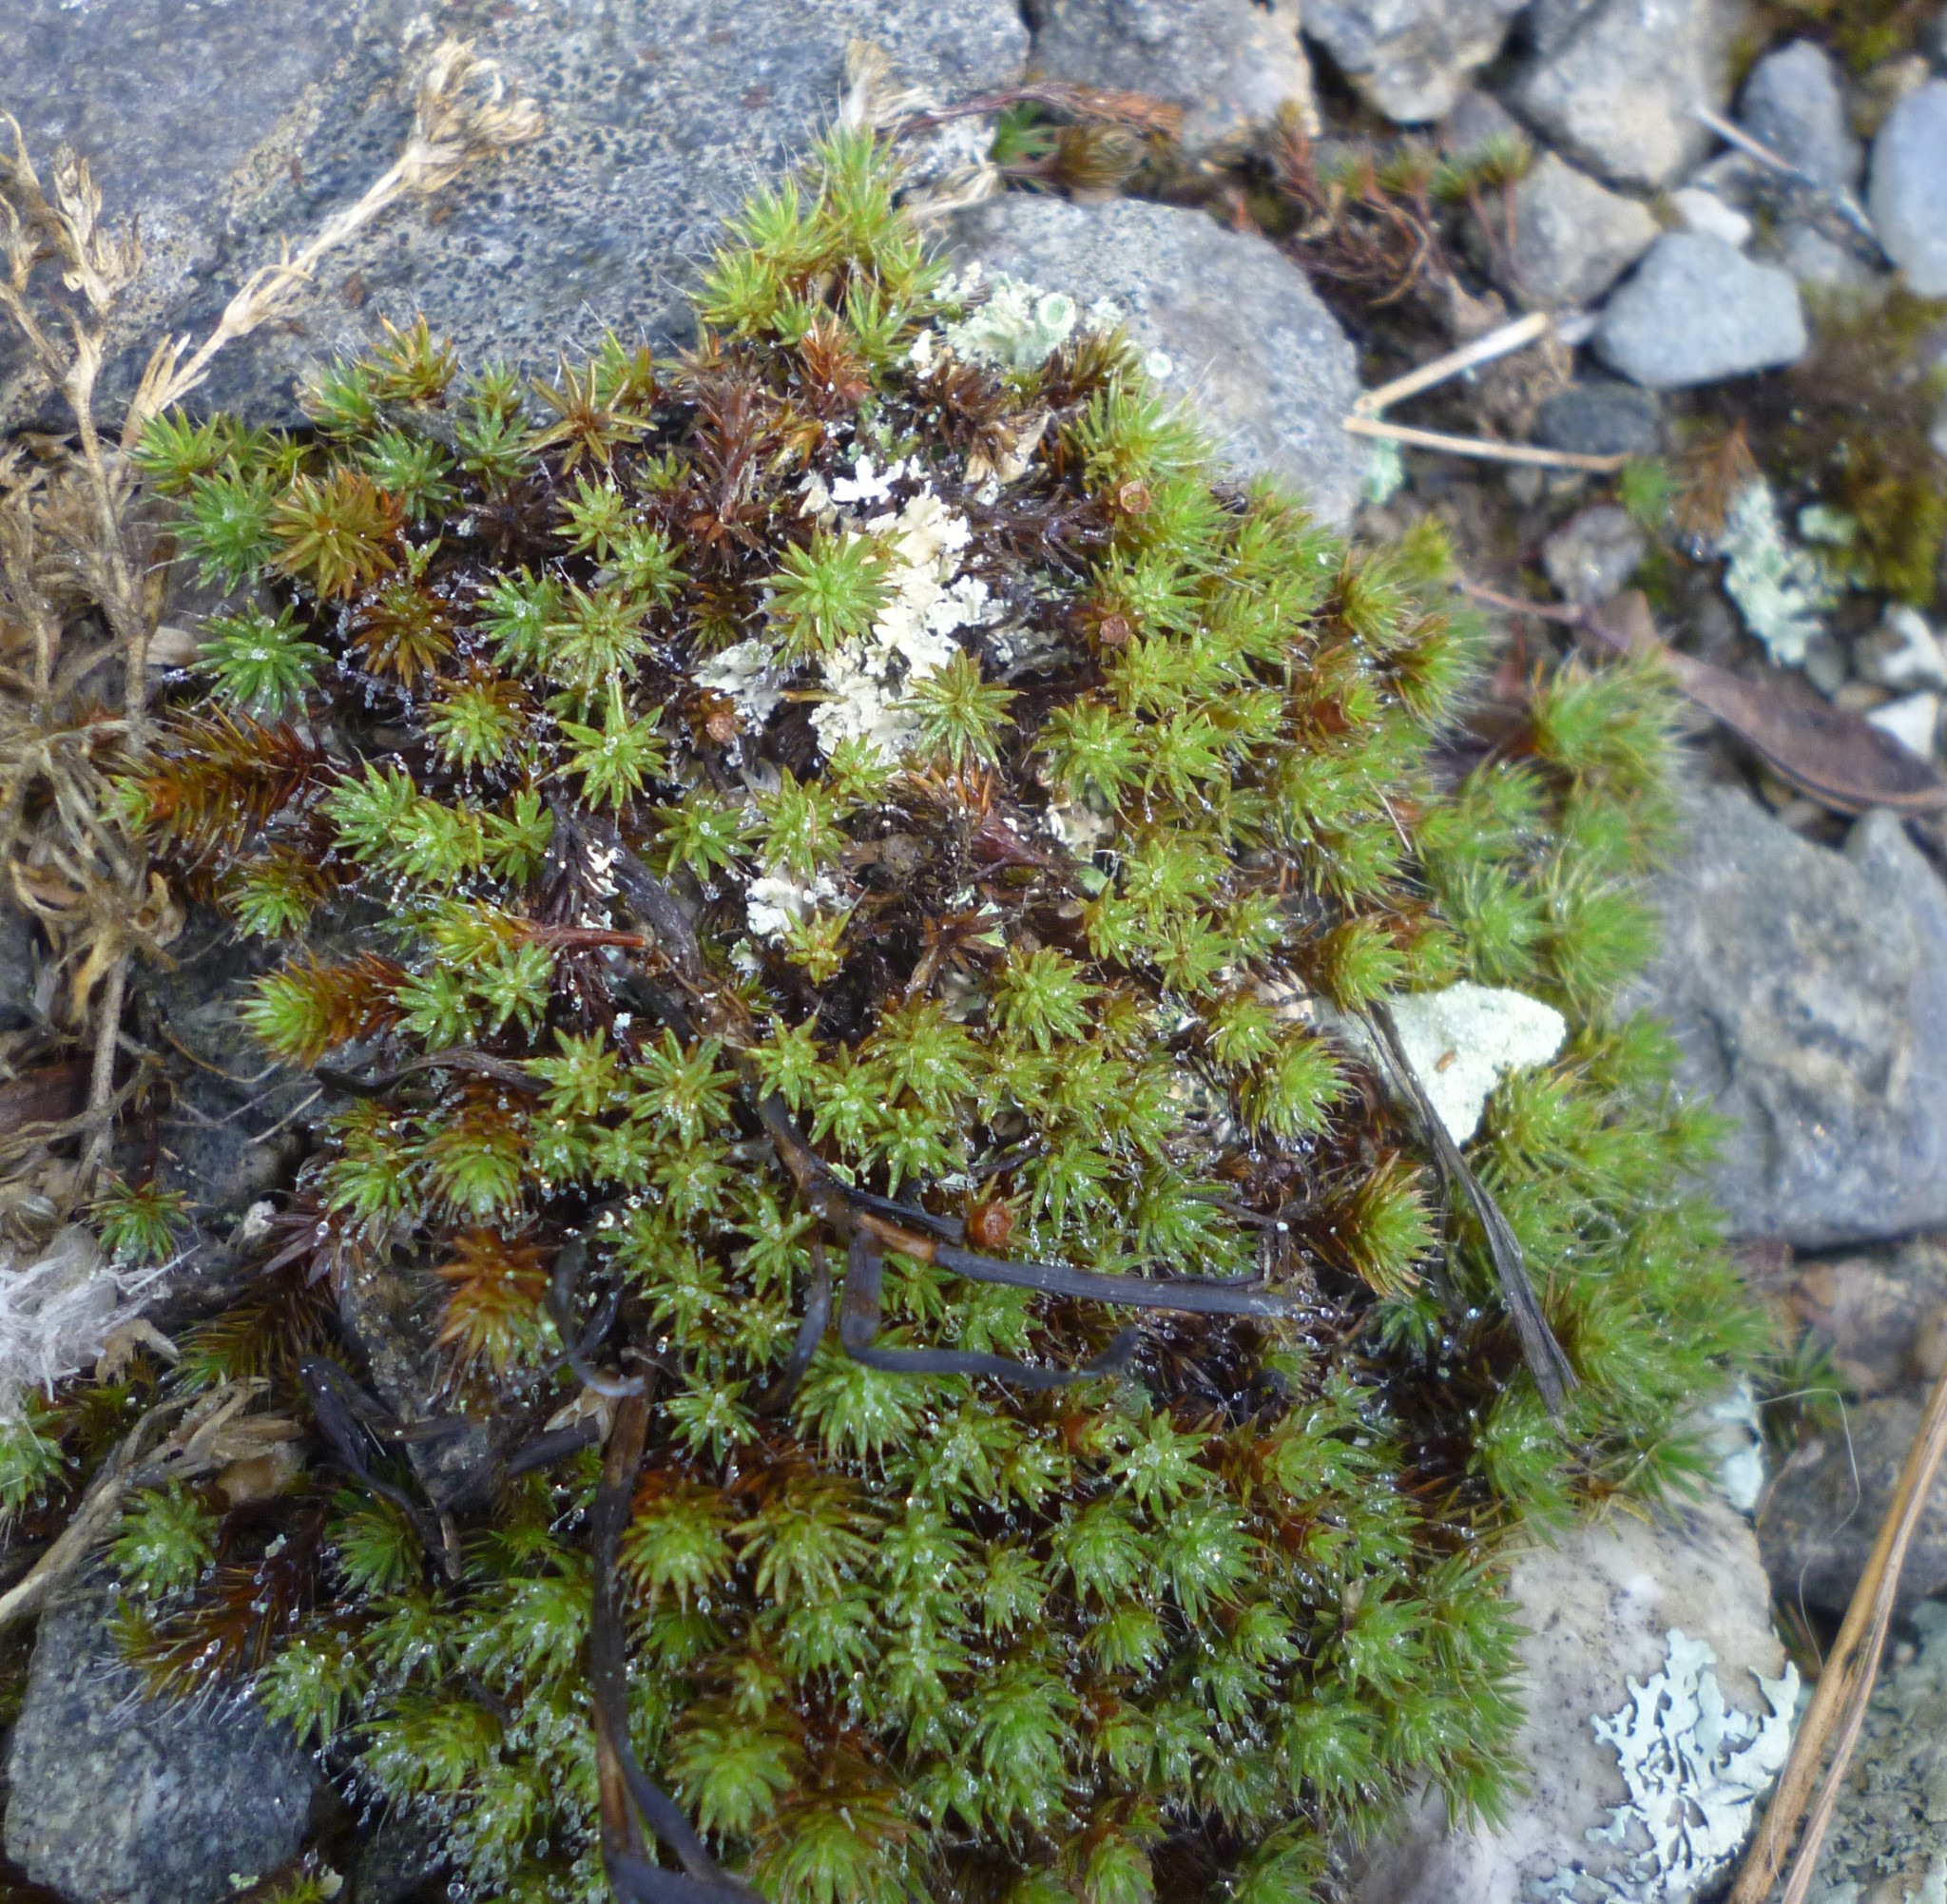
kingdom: Plantae
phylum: Bryophyta
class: Polytrichopsida
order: Polytrichales
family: Polytrichaceae
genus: Polytrichum
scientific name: Polytrichum piliferum
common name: Bristly haircap
